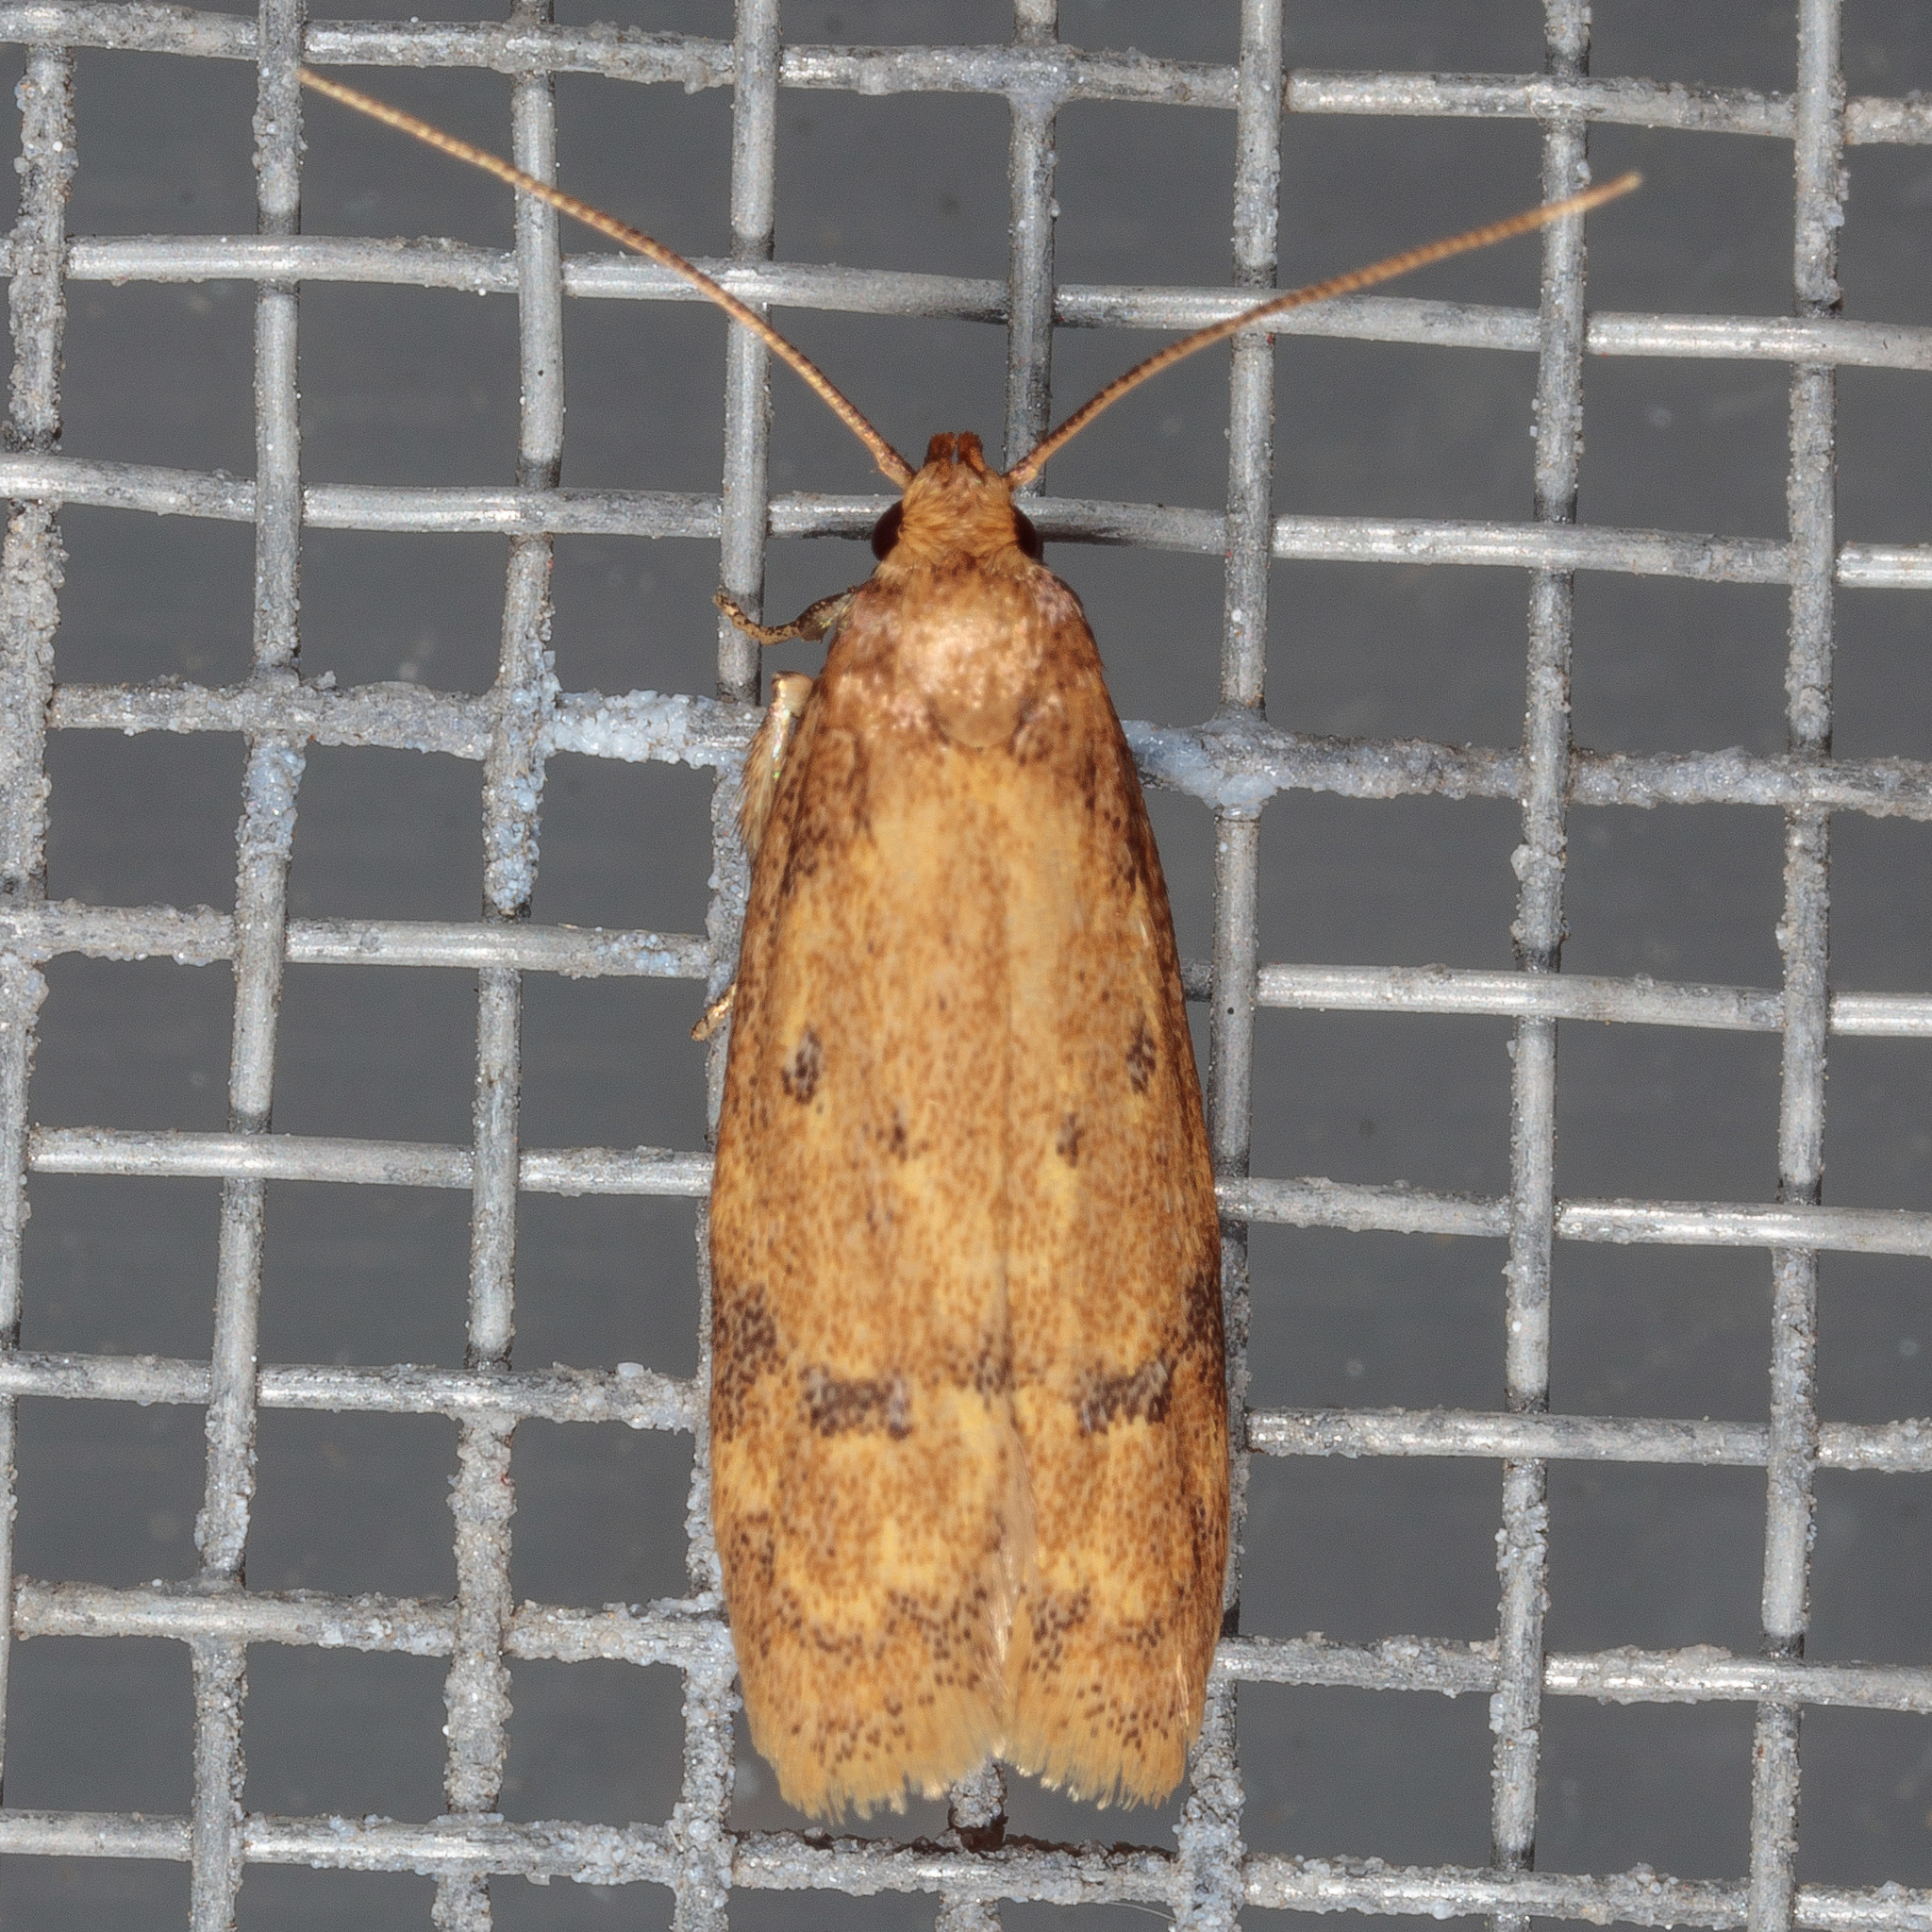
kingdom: Animalia
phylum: Arthropoda
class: Insecta
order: Lepidoptera
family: Autostichidae
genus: Gerdana
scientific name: Gerdana caritella
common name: Gerdana moth
